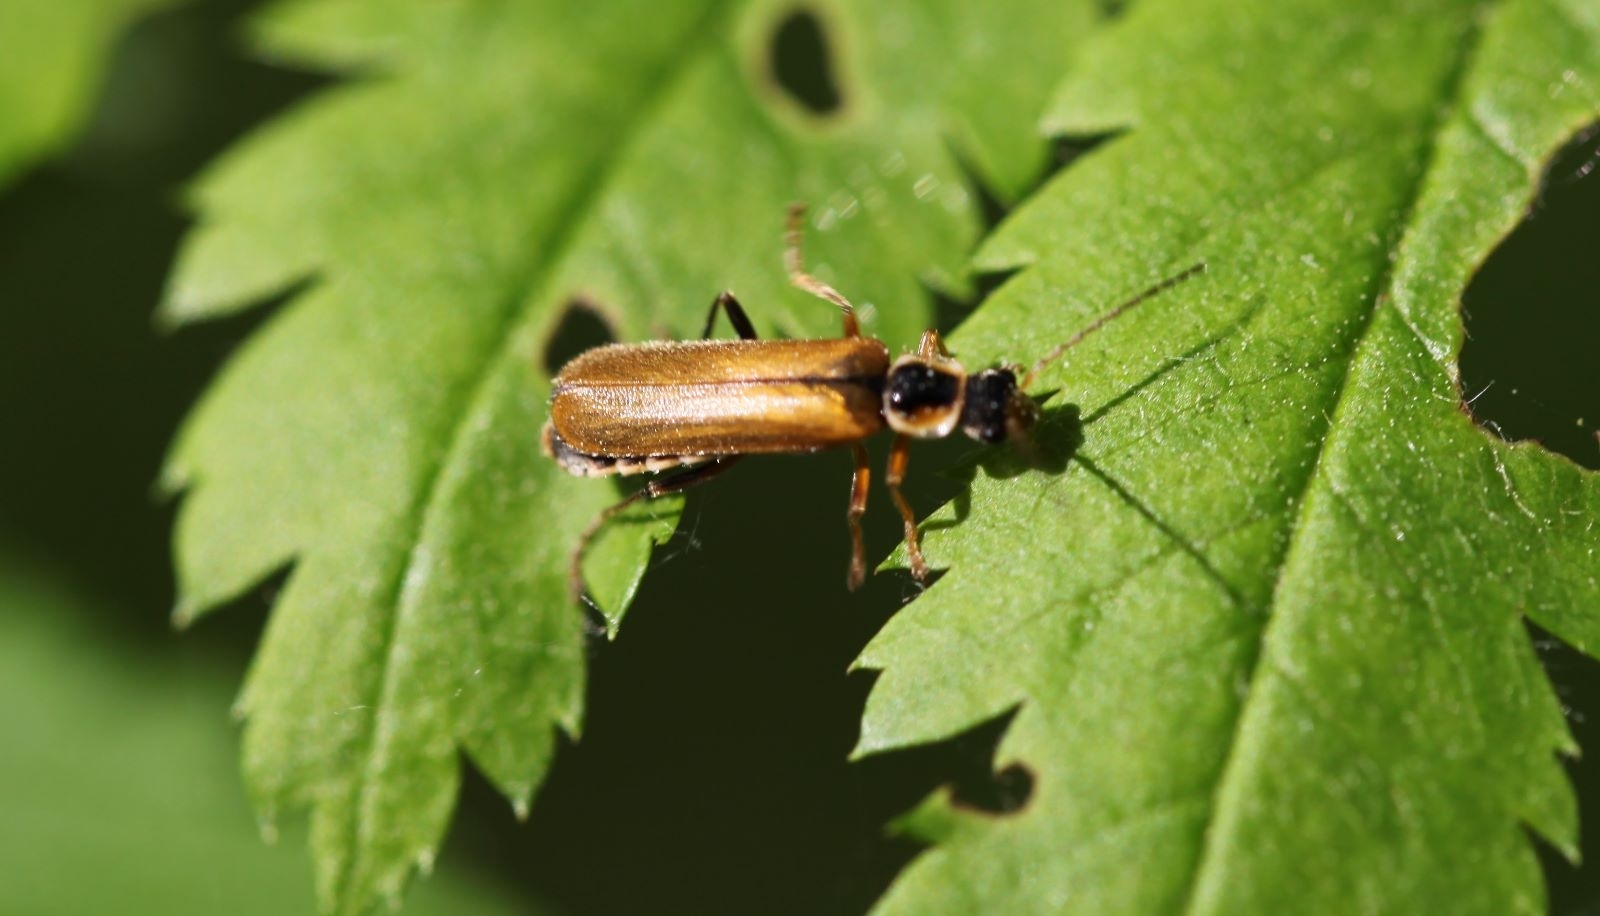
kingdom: Animalia
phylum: Arthropoda
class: Insecta
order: Coleoptera
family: Cantharidae
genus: Cantharis
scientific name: Cantharis decipiens
